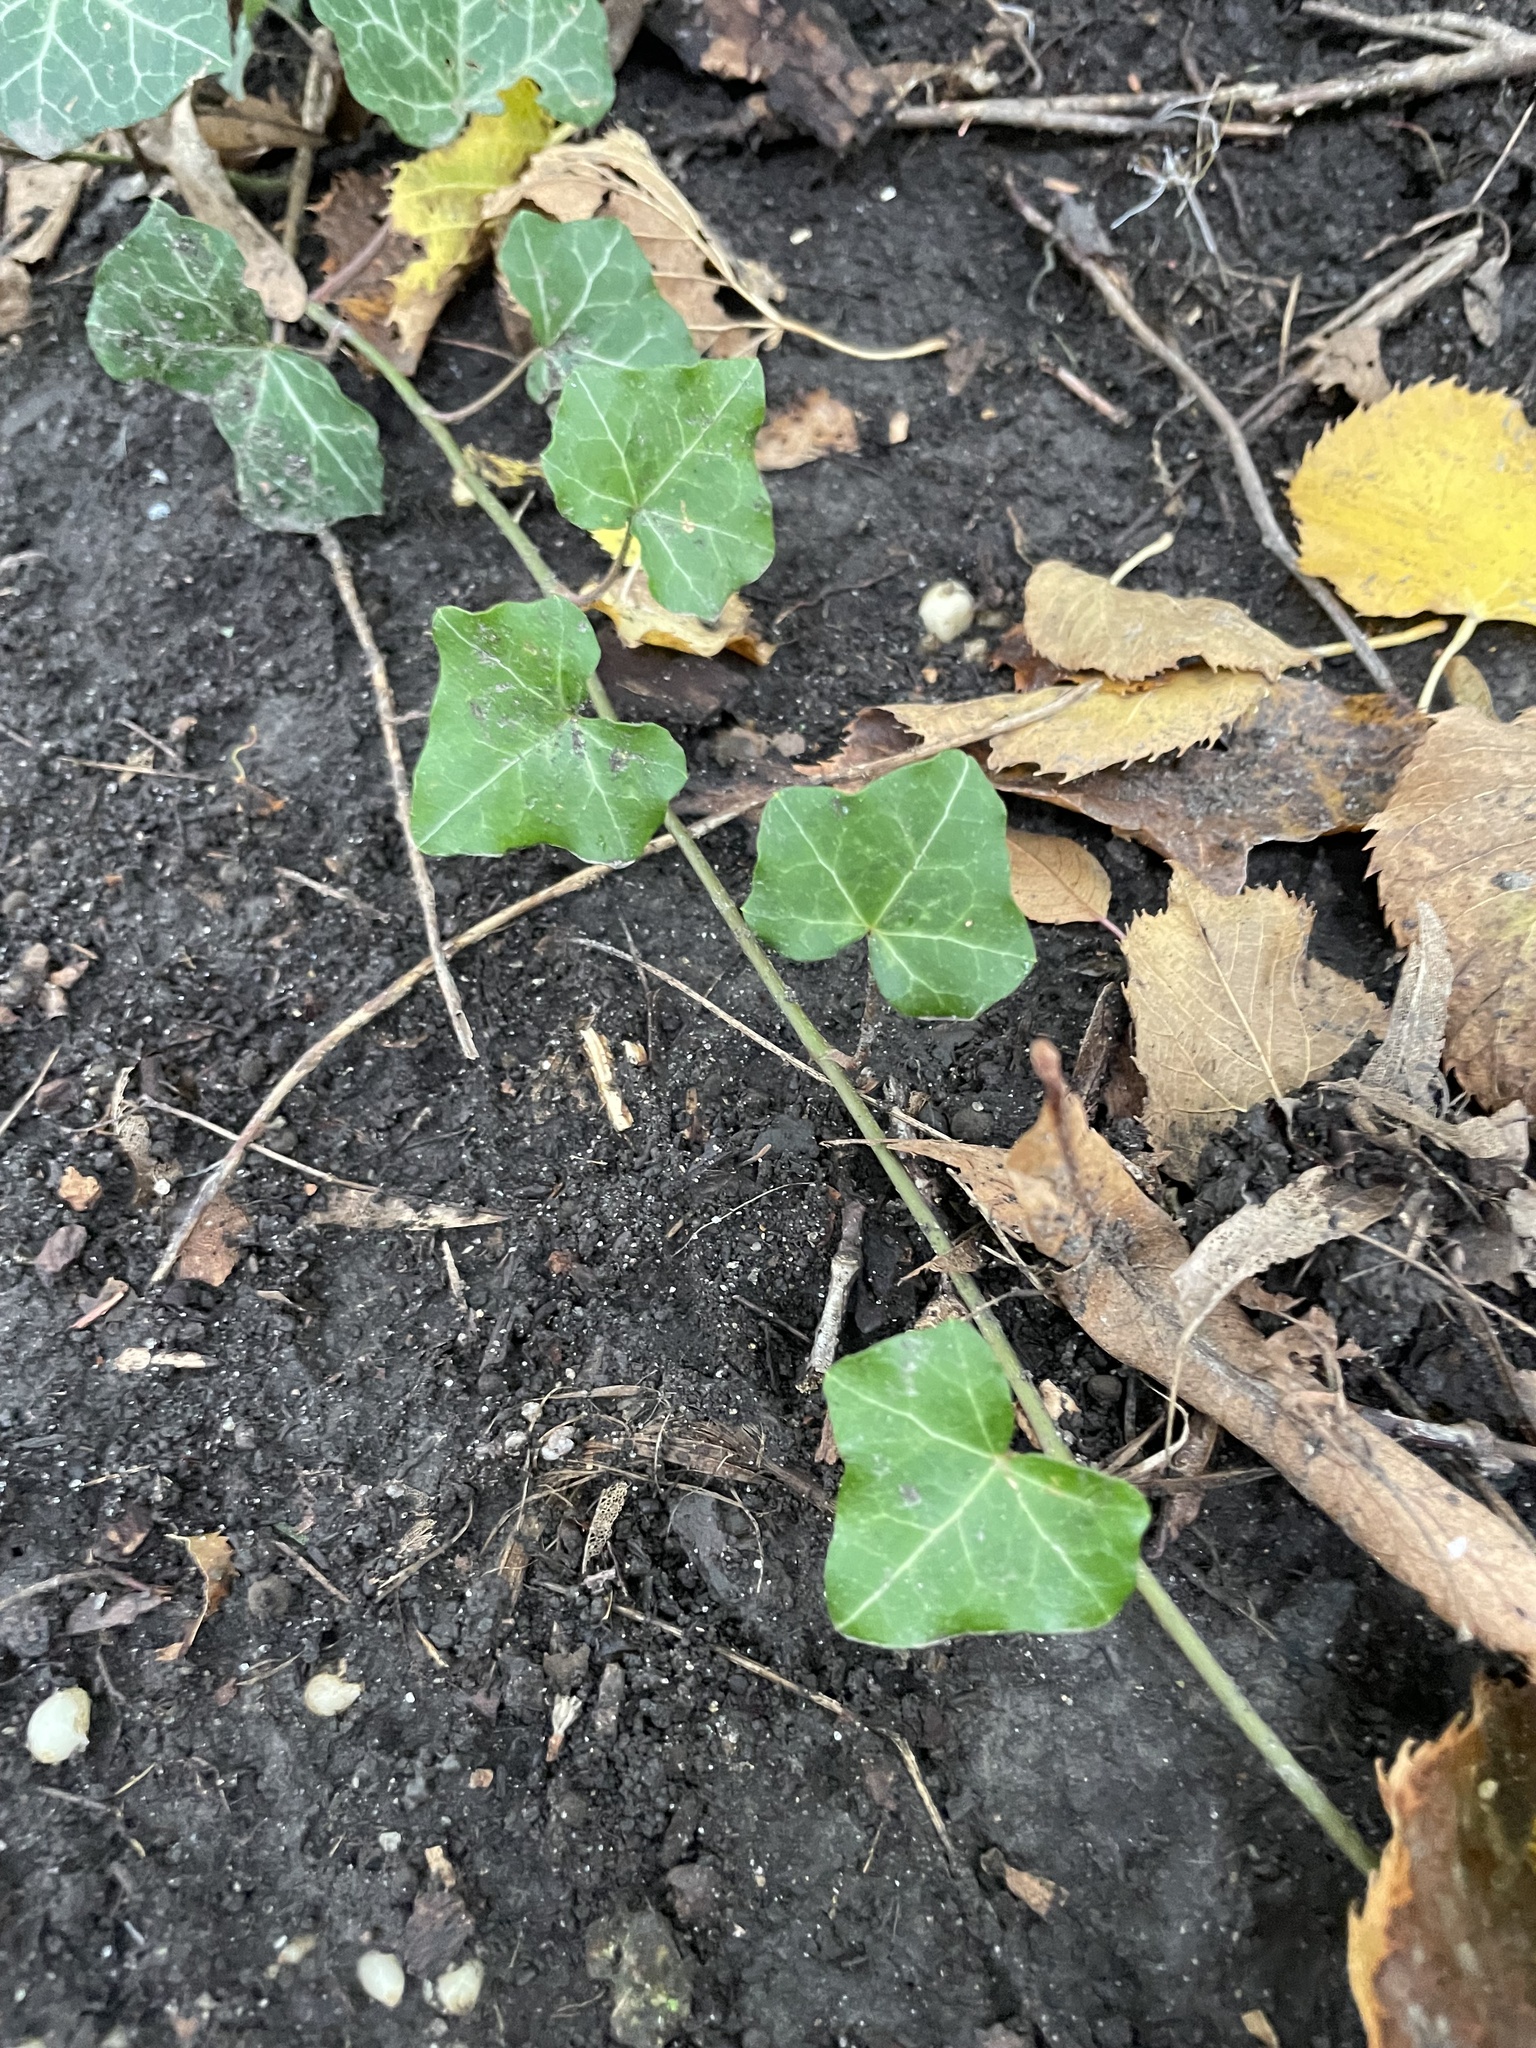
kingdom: Plantae
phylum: Tracheophyta
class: Magnoliopsida
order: Apiales
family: Araliaceae
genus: Hedera
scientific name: Hedera helix
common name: Ivy
